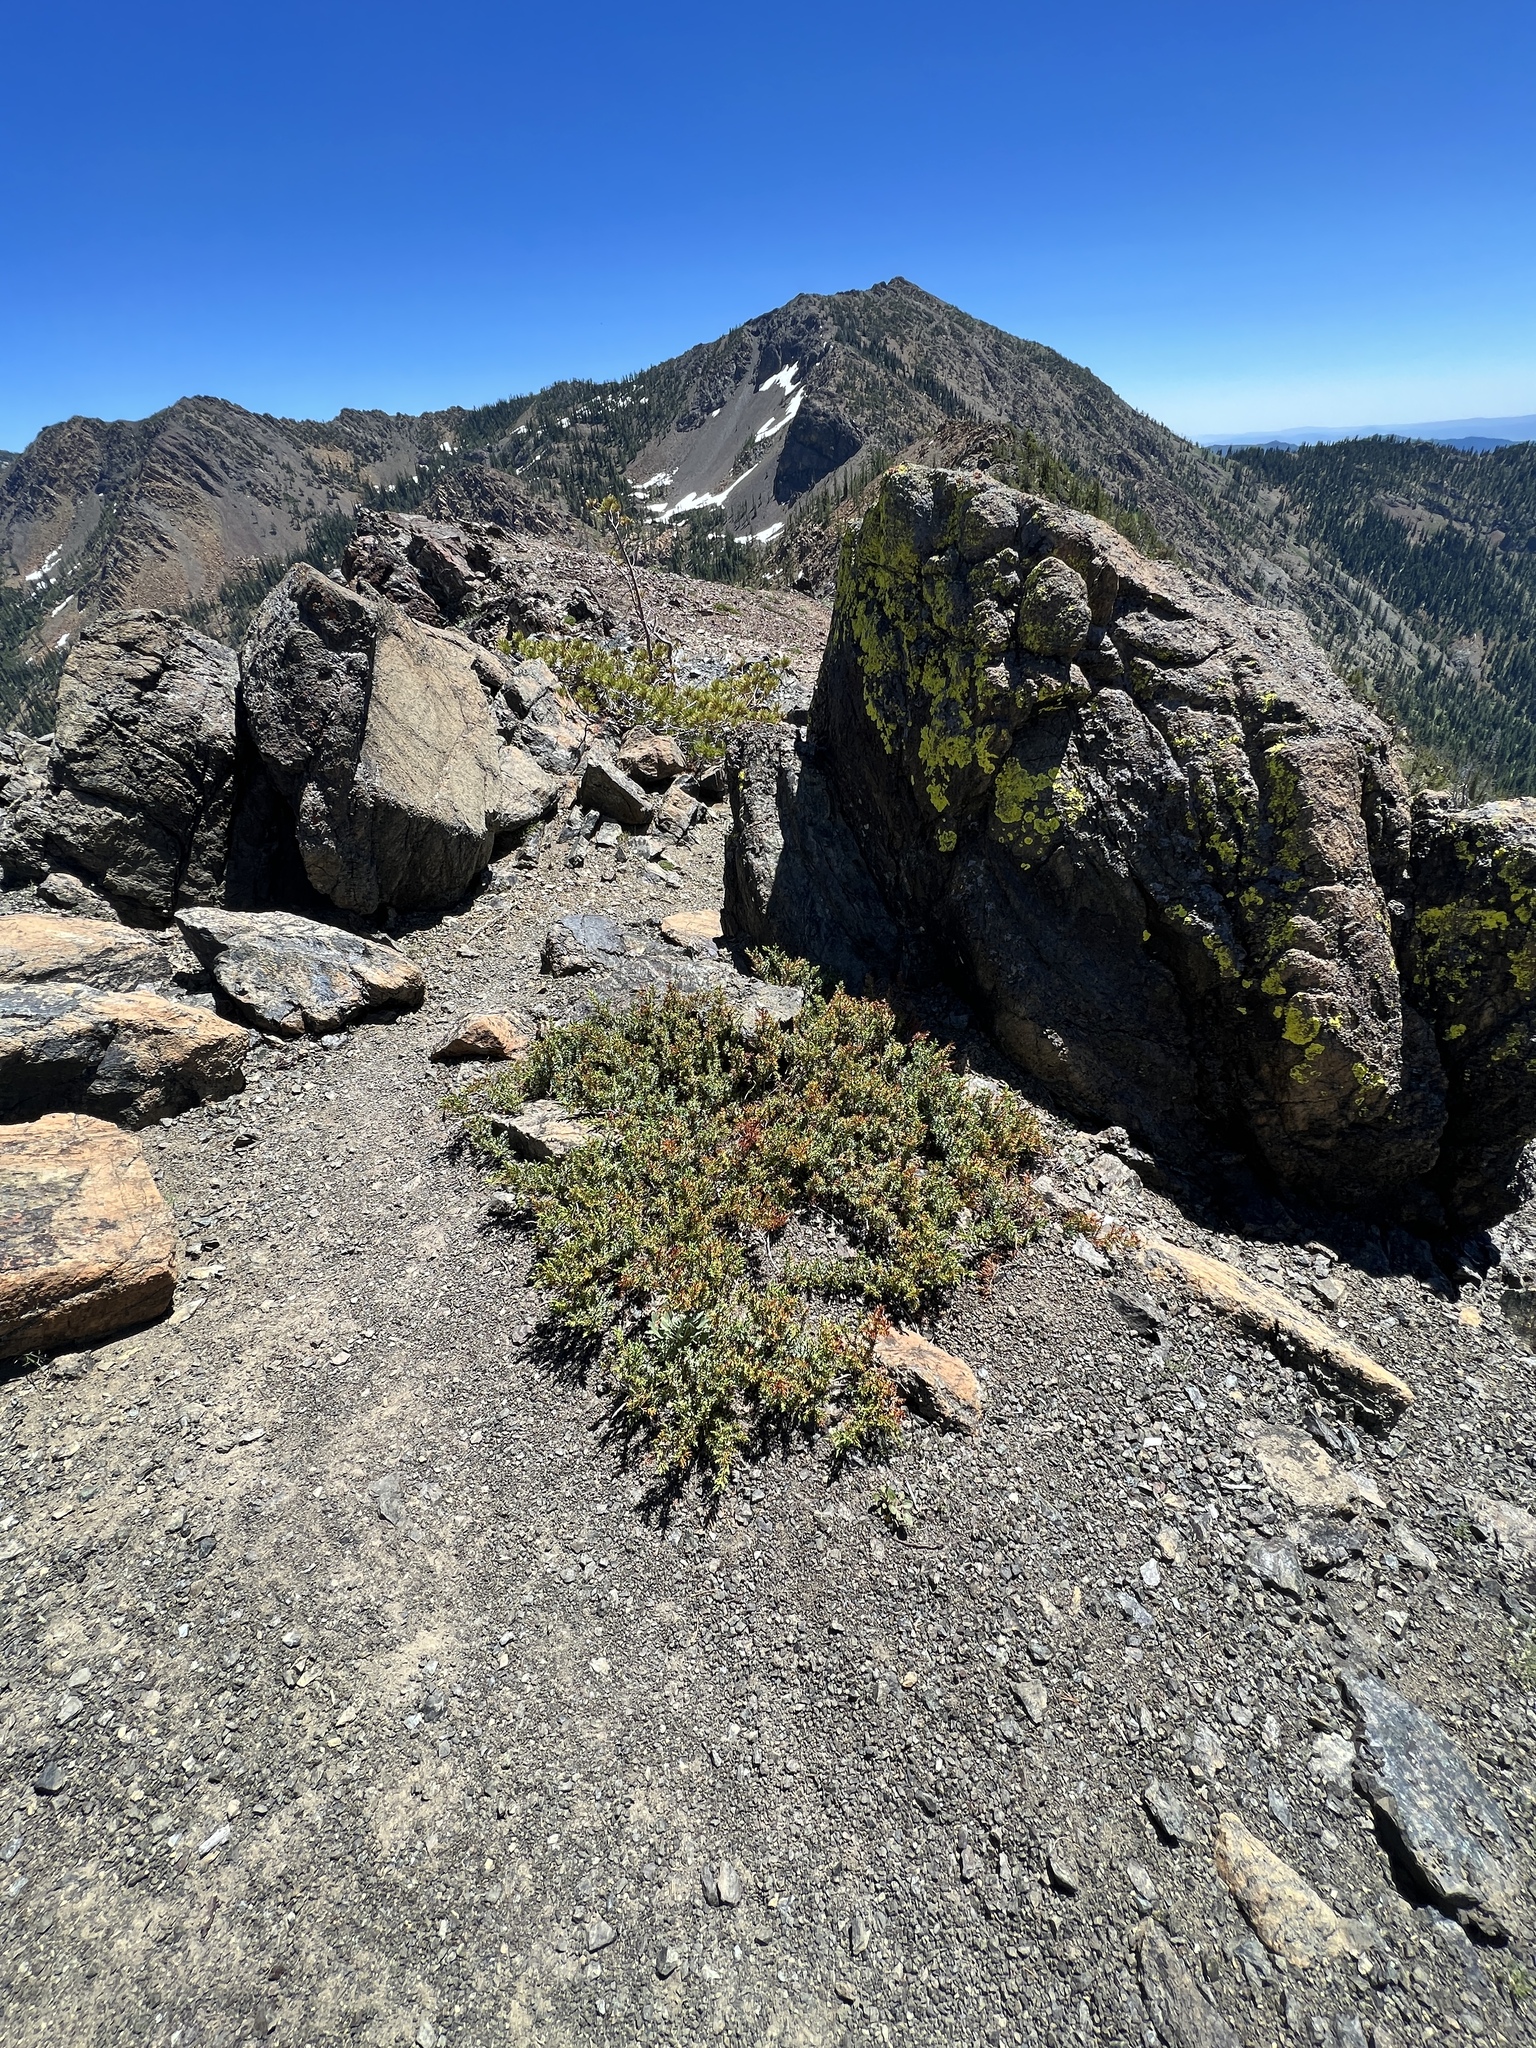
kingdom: Plantae
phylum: Tracheophyta
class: Pinopsida
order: Pinales
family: Cupressaceae
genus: Juniperus
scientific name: Juniperus communis
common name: Common juniper
